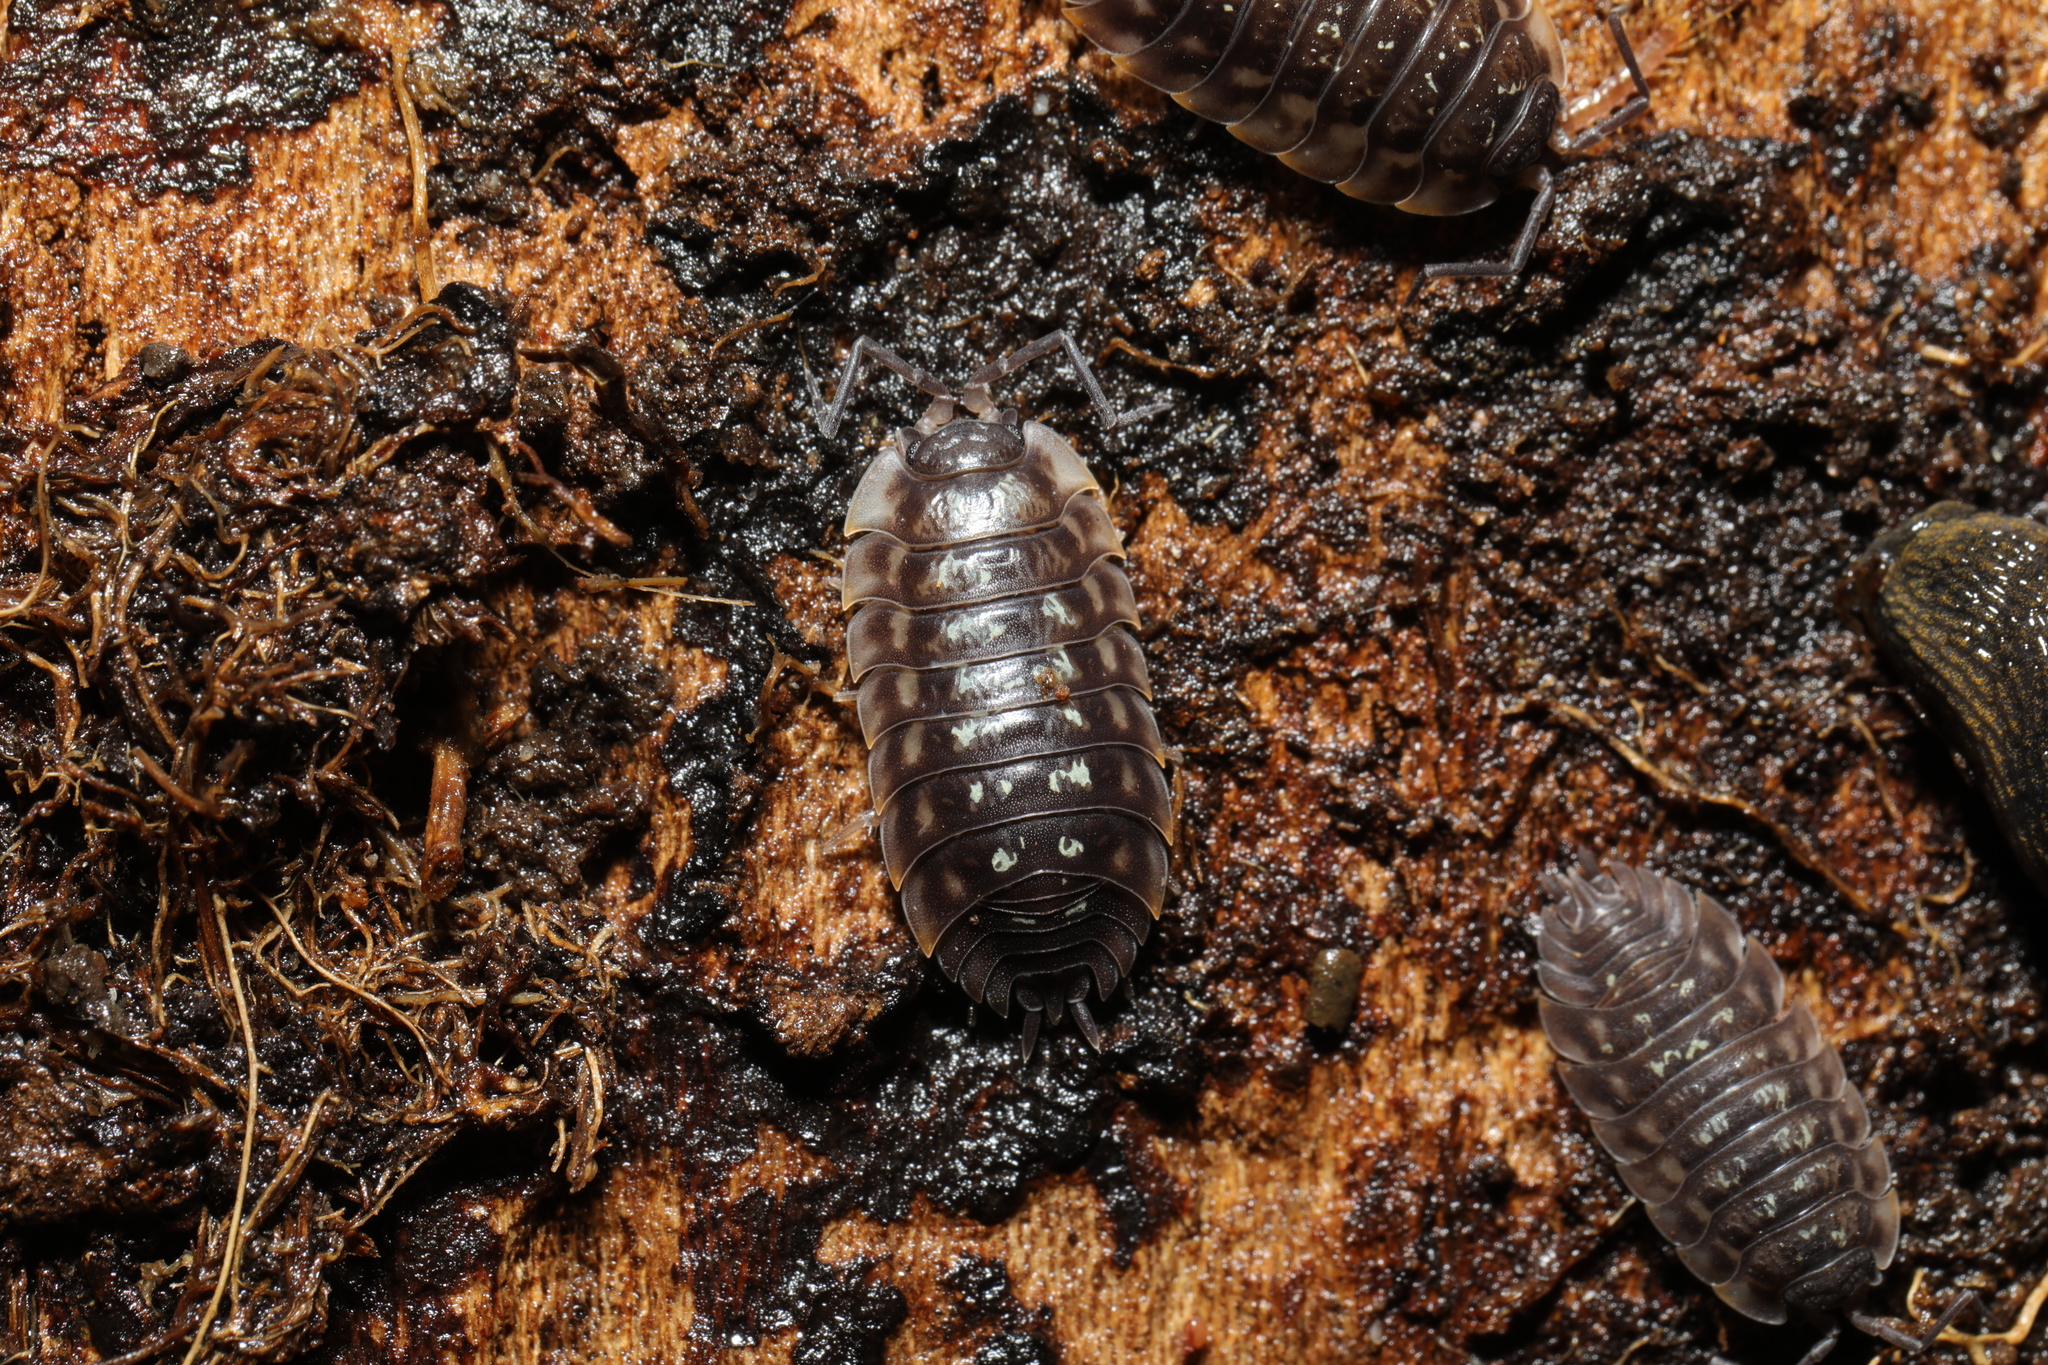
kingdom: Animalia
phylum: Arthropoda
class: Malacostraca
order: Isopoda
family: Oniscidae
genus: Oniscus
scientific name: Oniscus asellus
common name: Common shiny woodlouse
